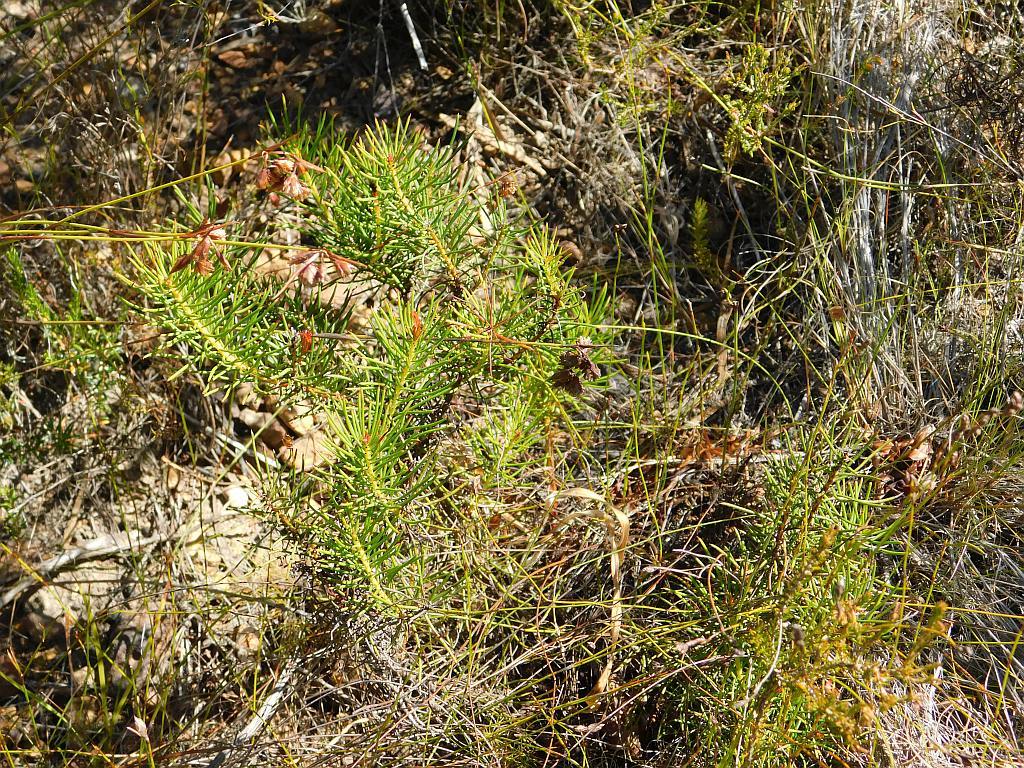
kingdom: Plantae
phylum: Tracheophyta
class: Magnoliopsida
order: Proteales
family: Proteaceae
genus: Protea
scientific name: Protea subulifolia
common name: Awl-leaf sugarbush
